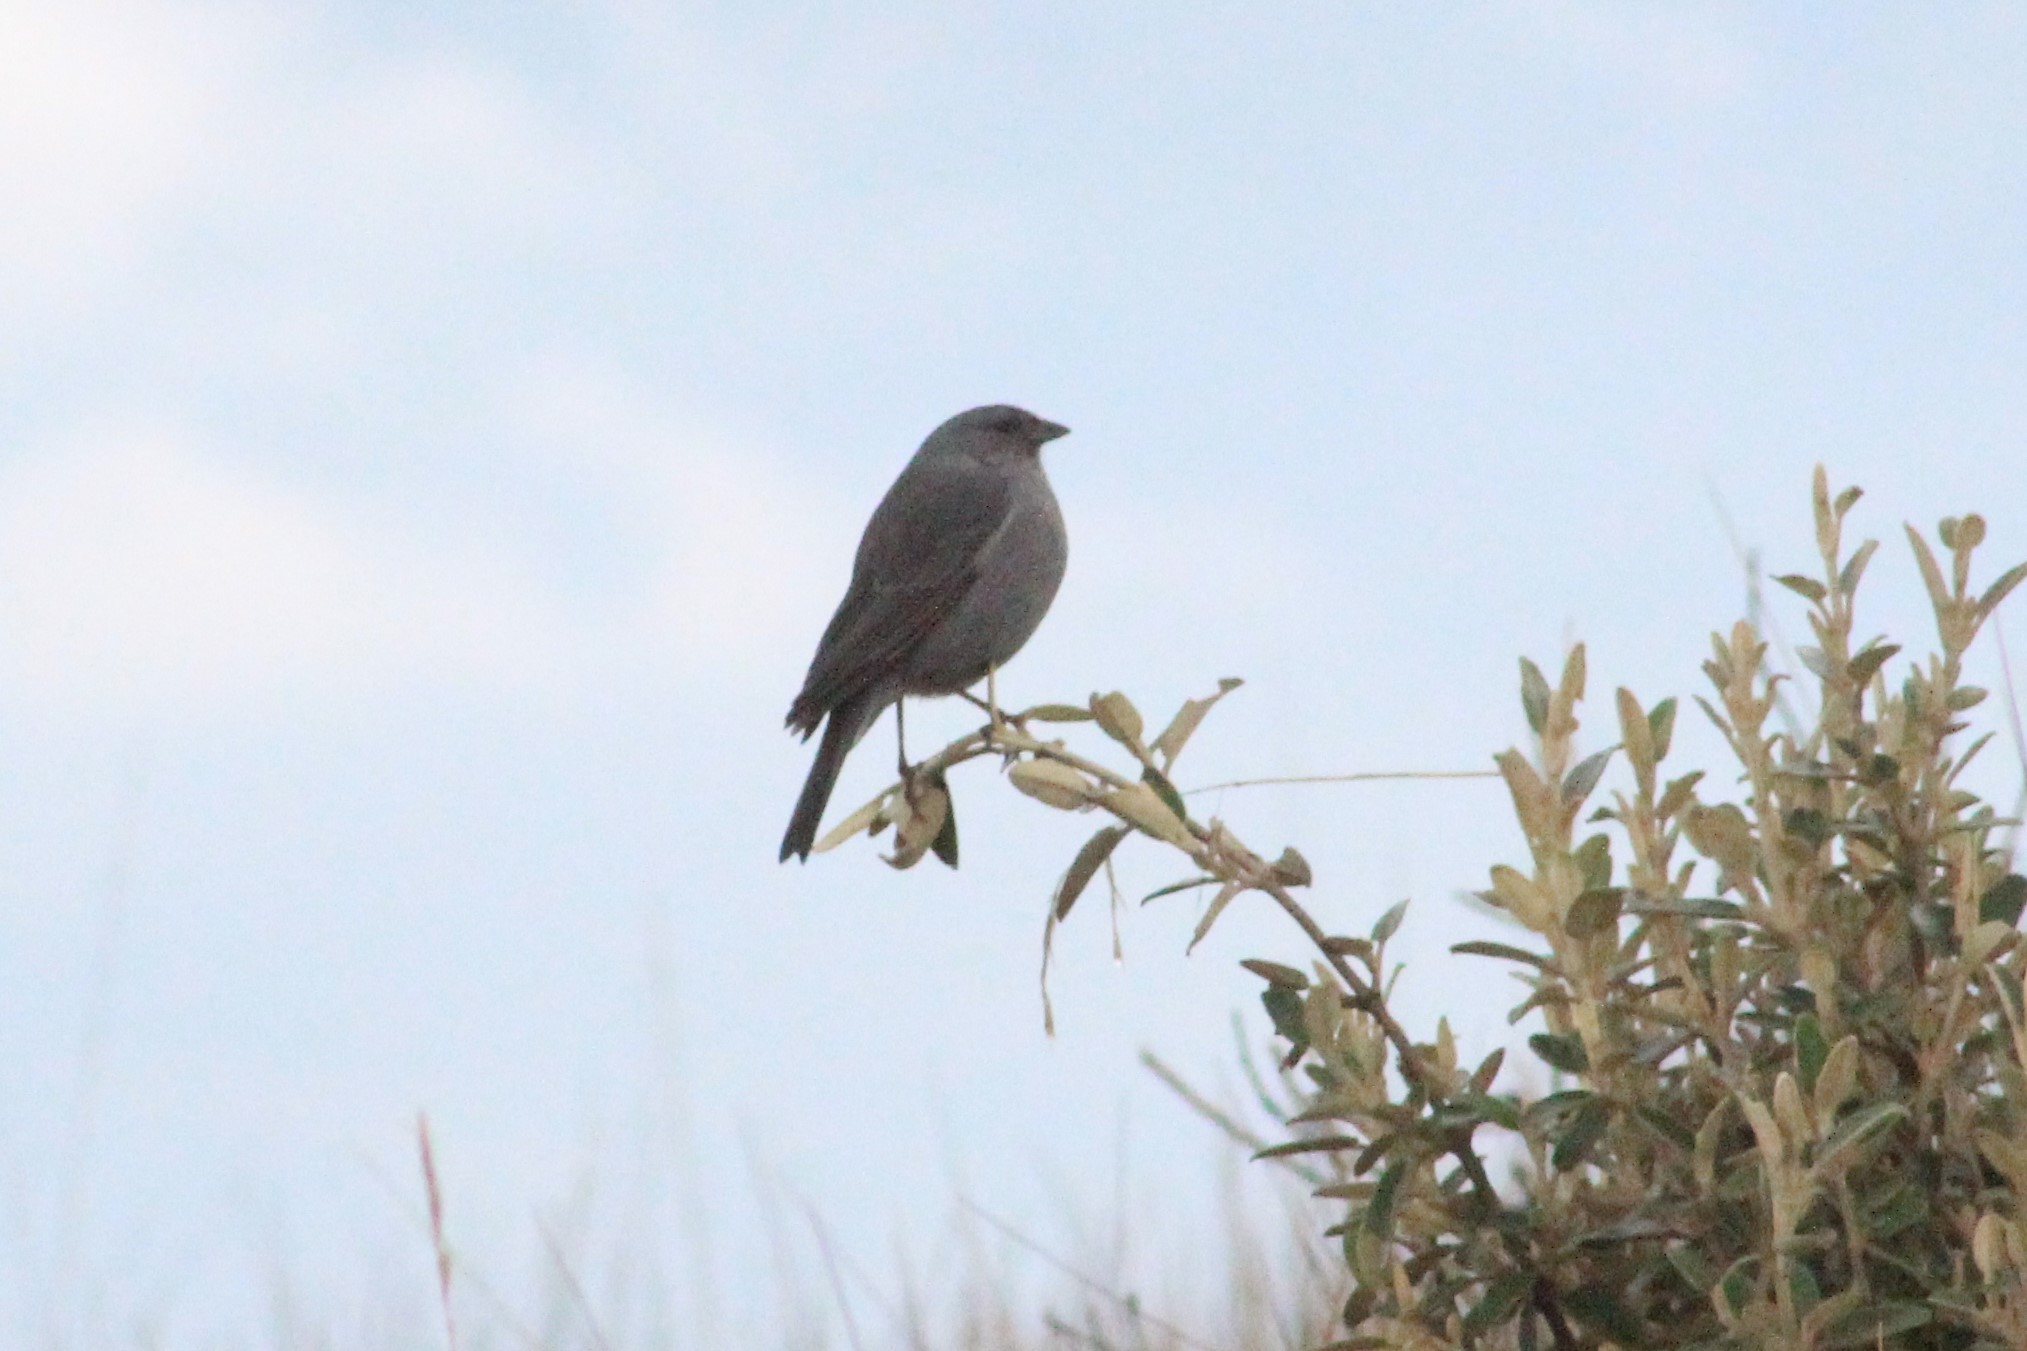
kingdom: Animalia
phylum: Chordata
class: Aves
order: Passeriformes
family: Thraupidae
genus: Geospizopsis
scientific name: Geospizopsis unicolor
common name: Plumbeous sierra-finch
